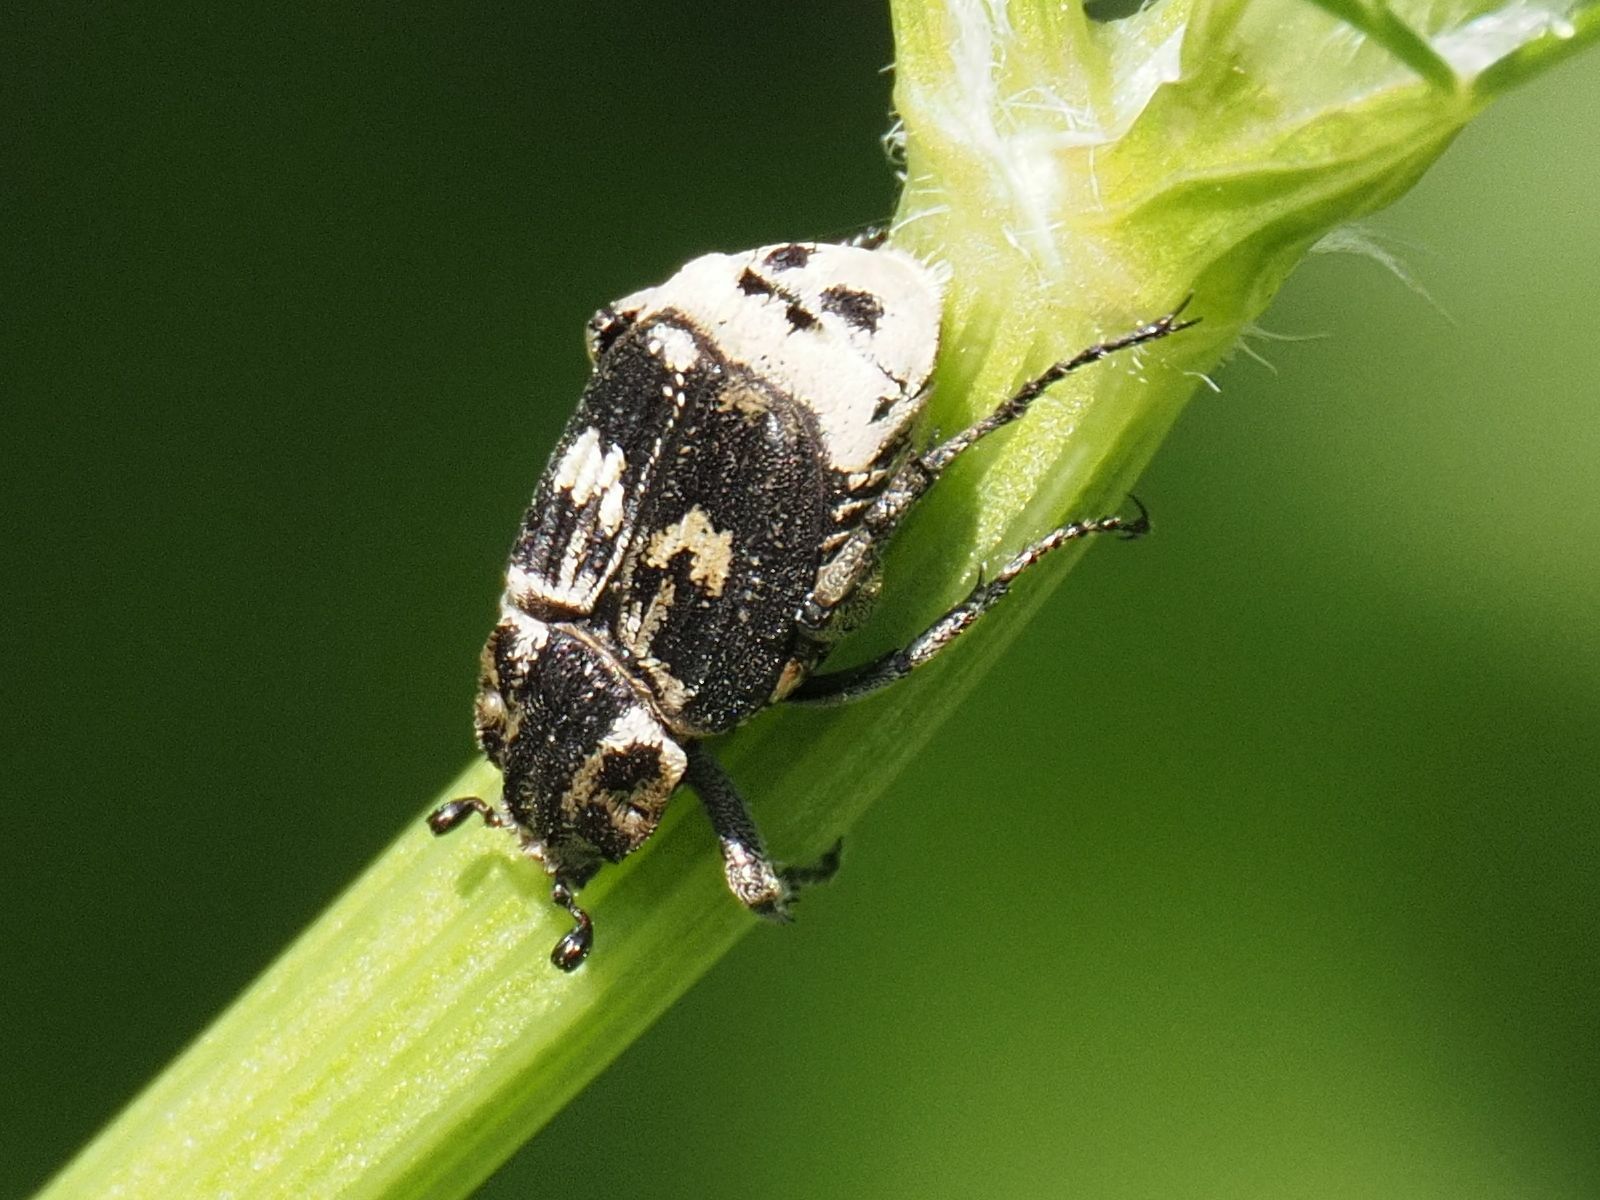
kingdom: Animalia
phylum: Arthropoda
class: Insecta
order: Coleoptera
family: Scarabaeidae
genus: Valgus
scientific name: Valgus hemipterus
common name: Bug flower chafer
